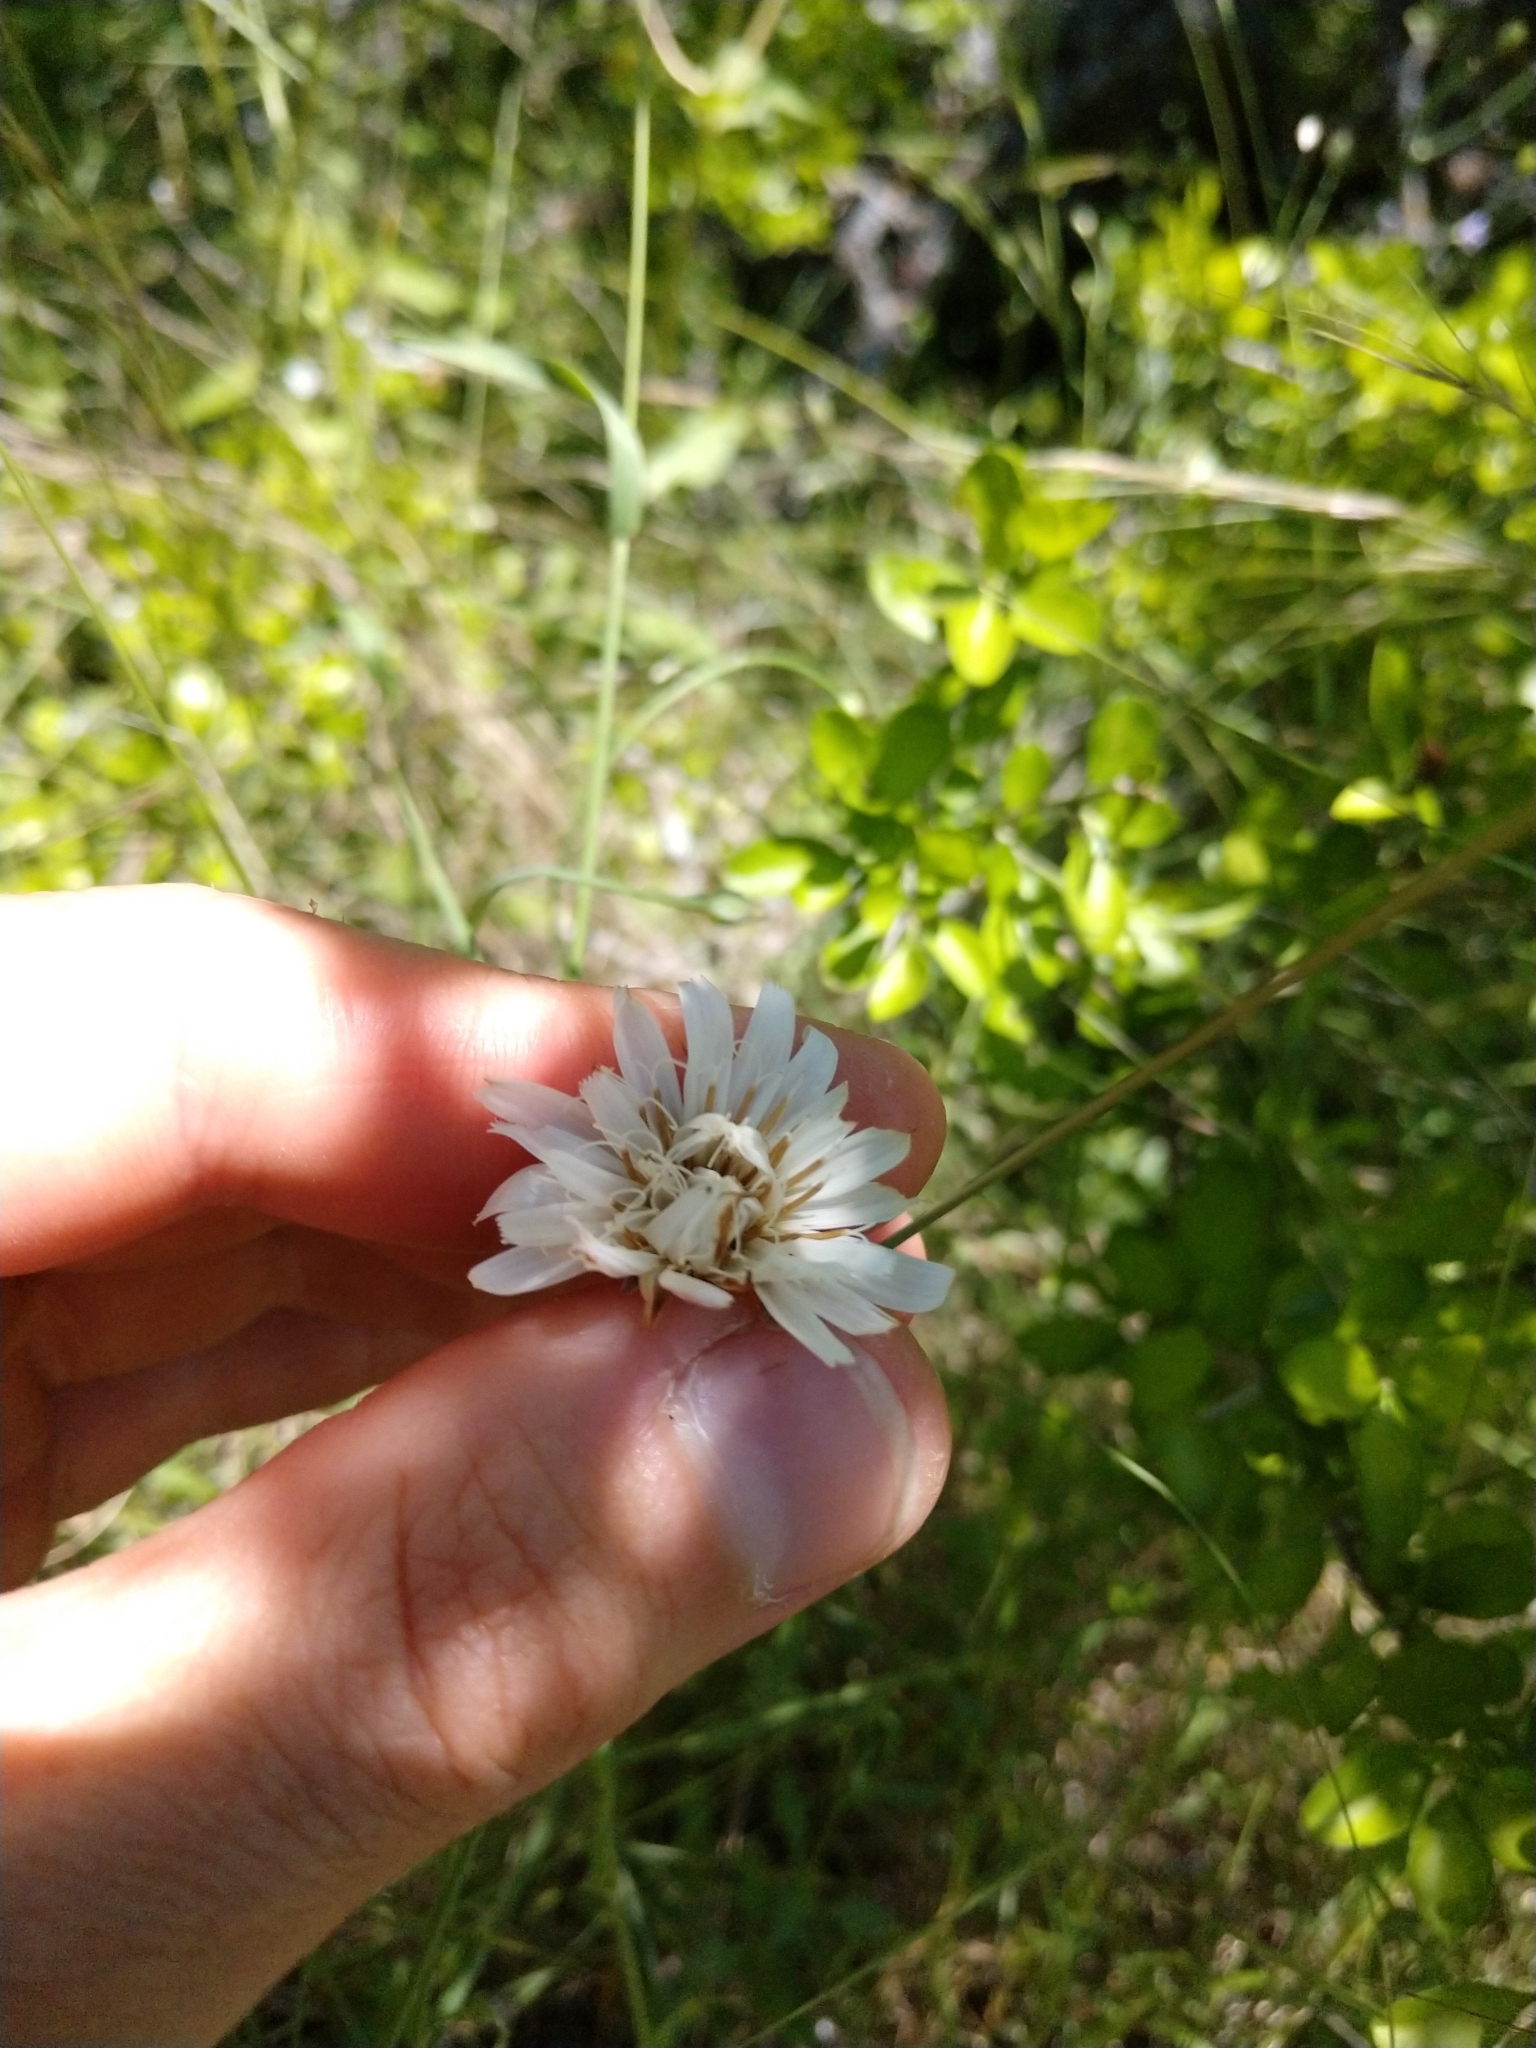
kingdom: Plantae
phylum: Tracheophyta
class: Magnoliopsida
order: Asterales
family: Asteraceae
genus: Pinaropappus
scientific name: Pinaropappus roseus
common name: Rock-lettuce
